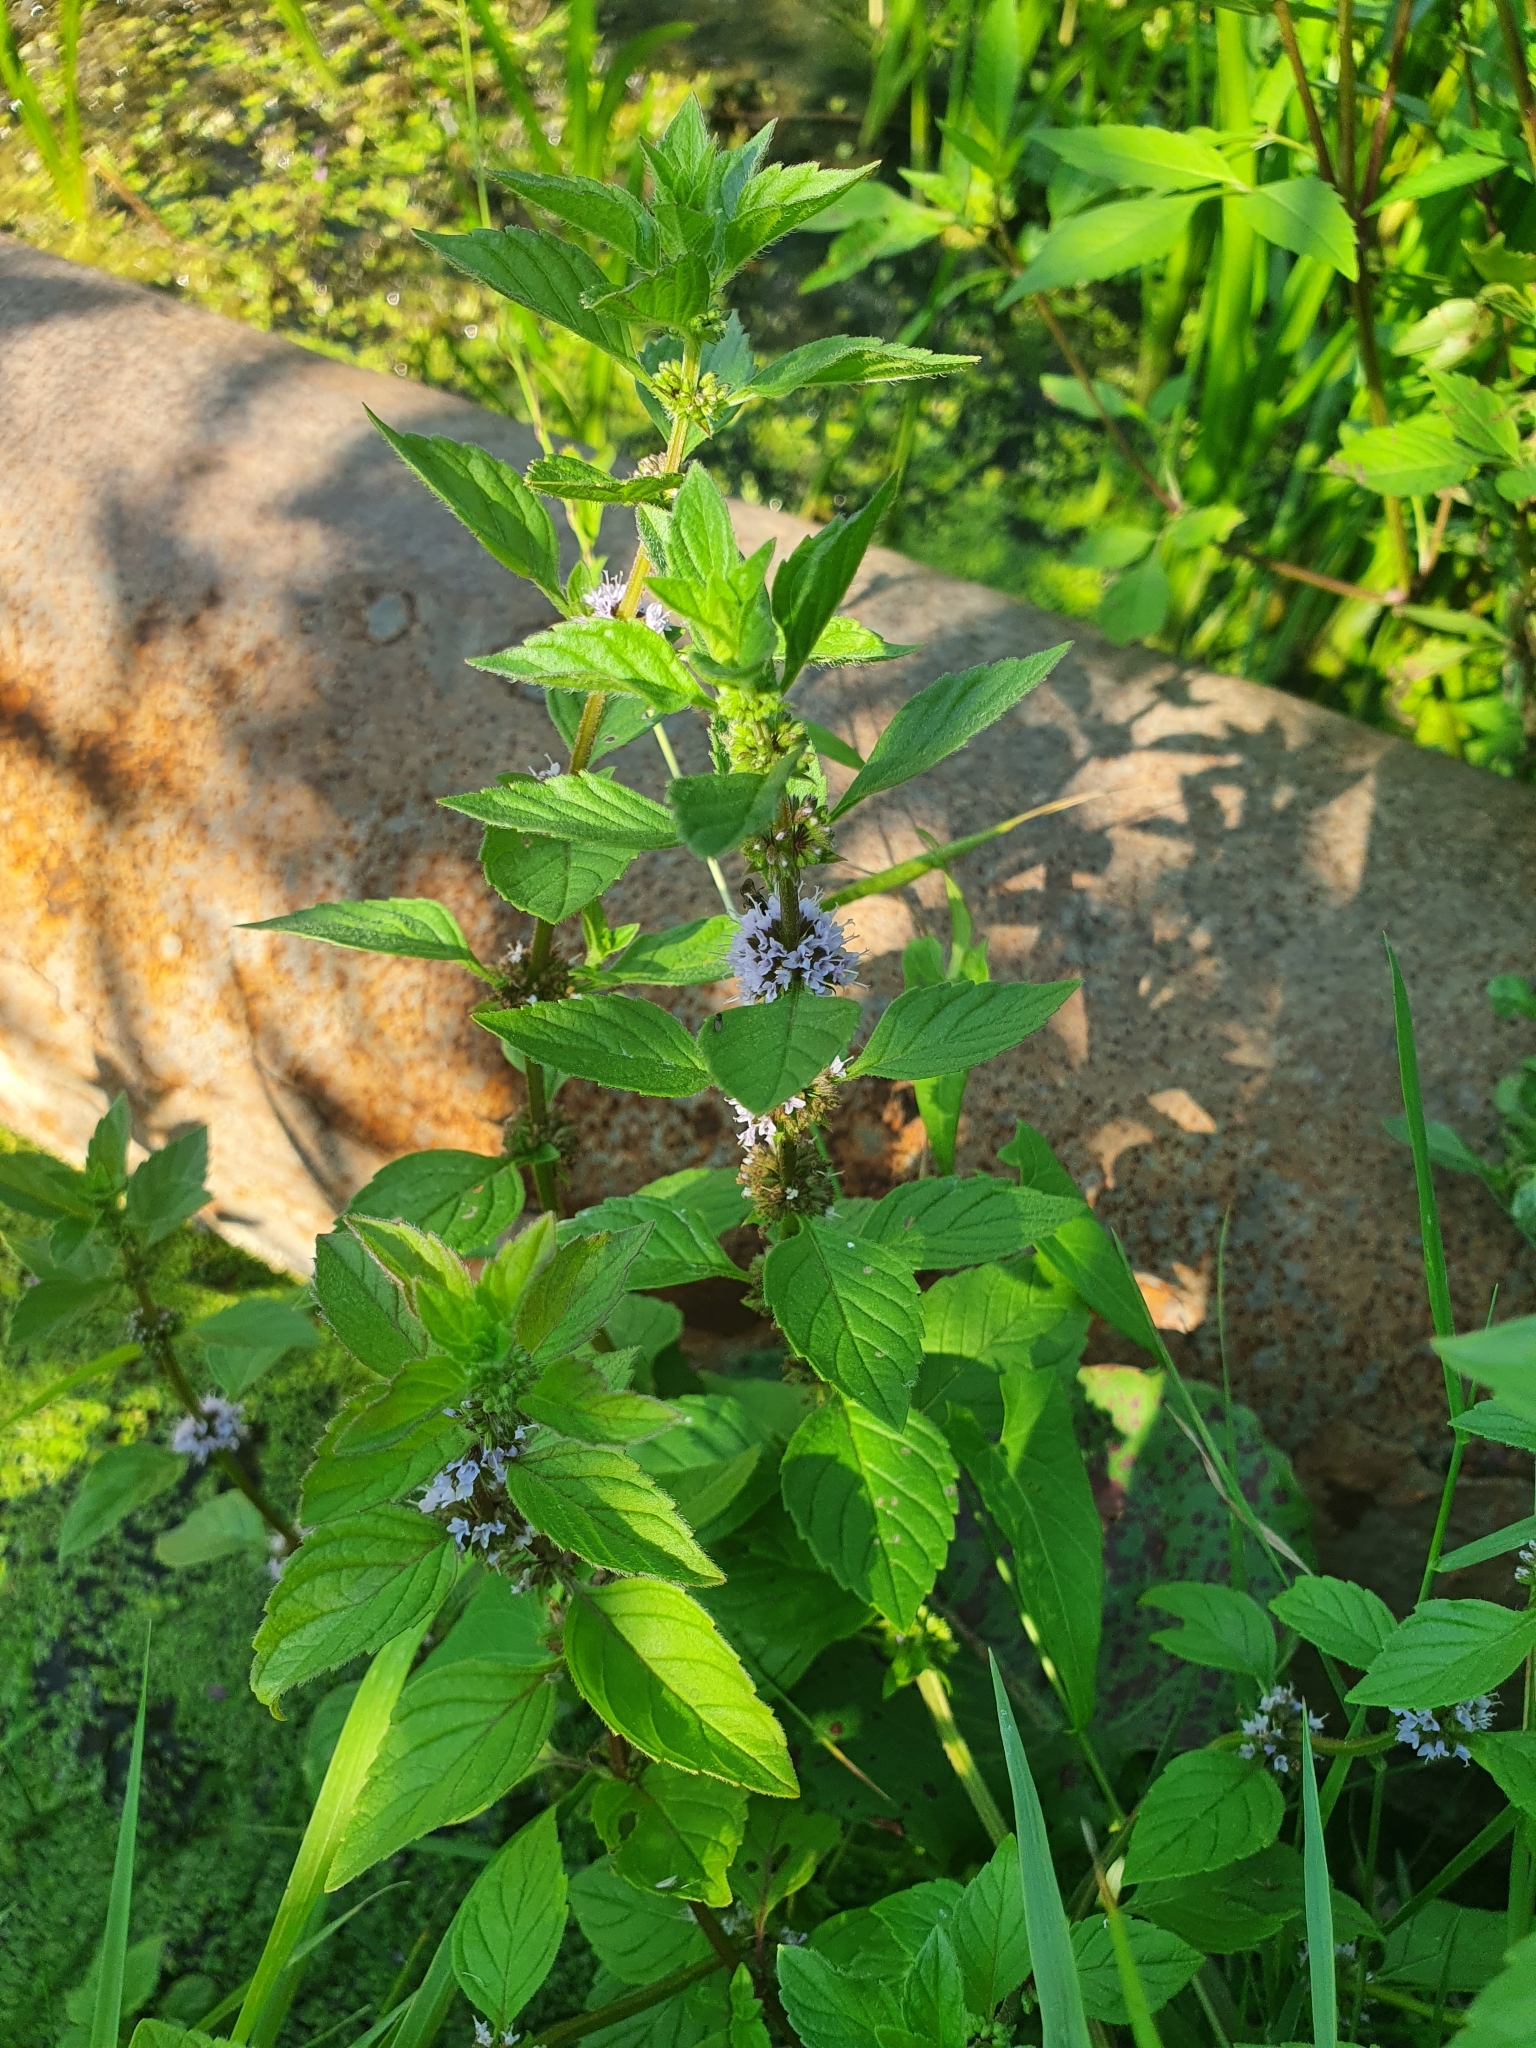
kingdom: Plantae
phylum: Tracheophyta
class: Magnoliopsida
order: Lamiales
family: Lamiaceae
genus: Mentha
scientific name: Mentha arvensis
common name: Corn mint
